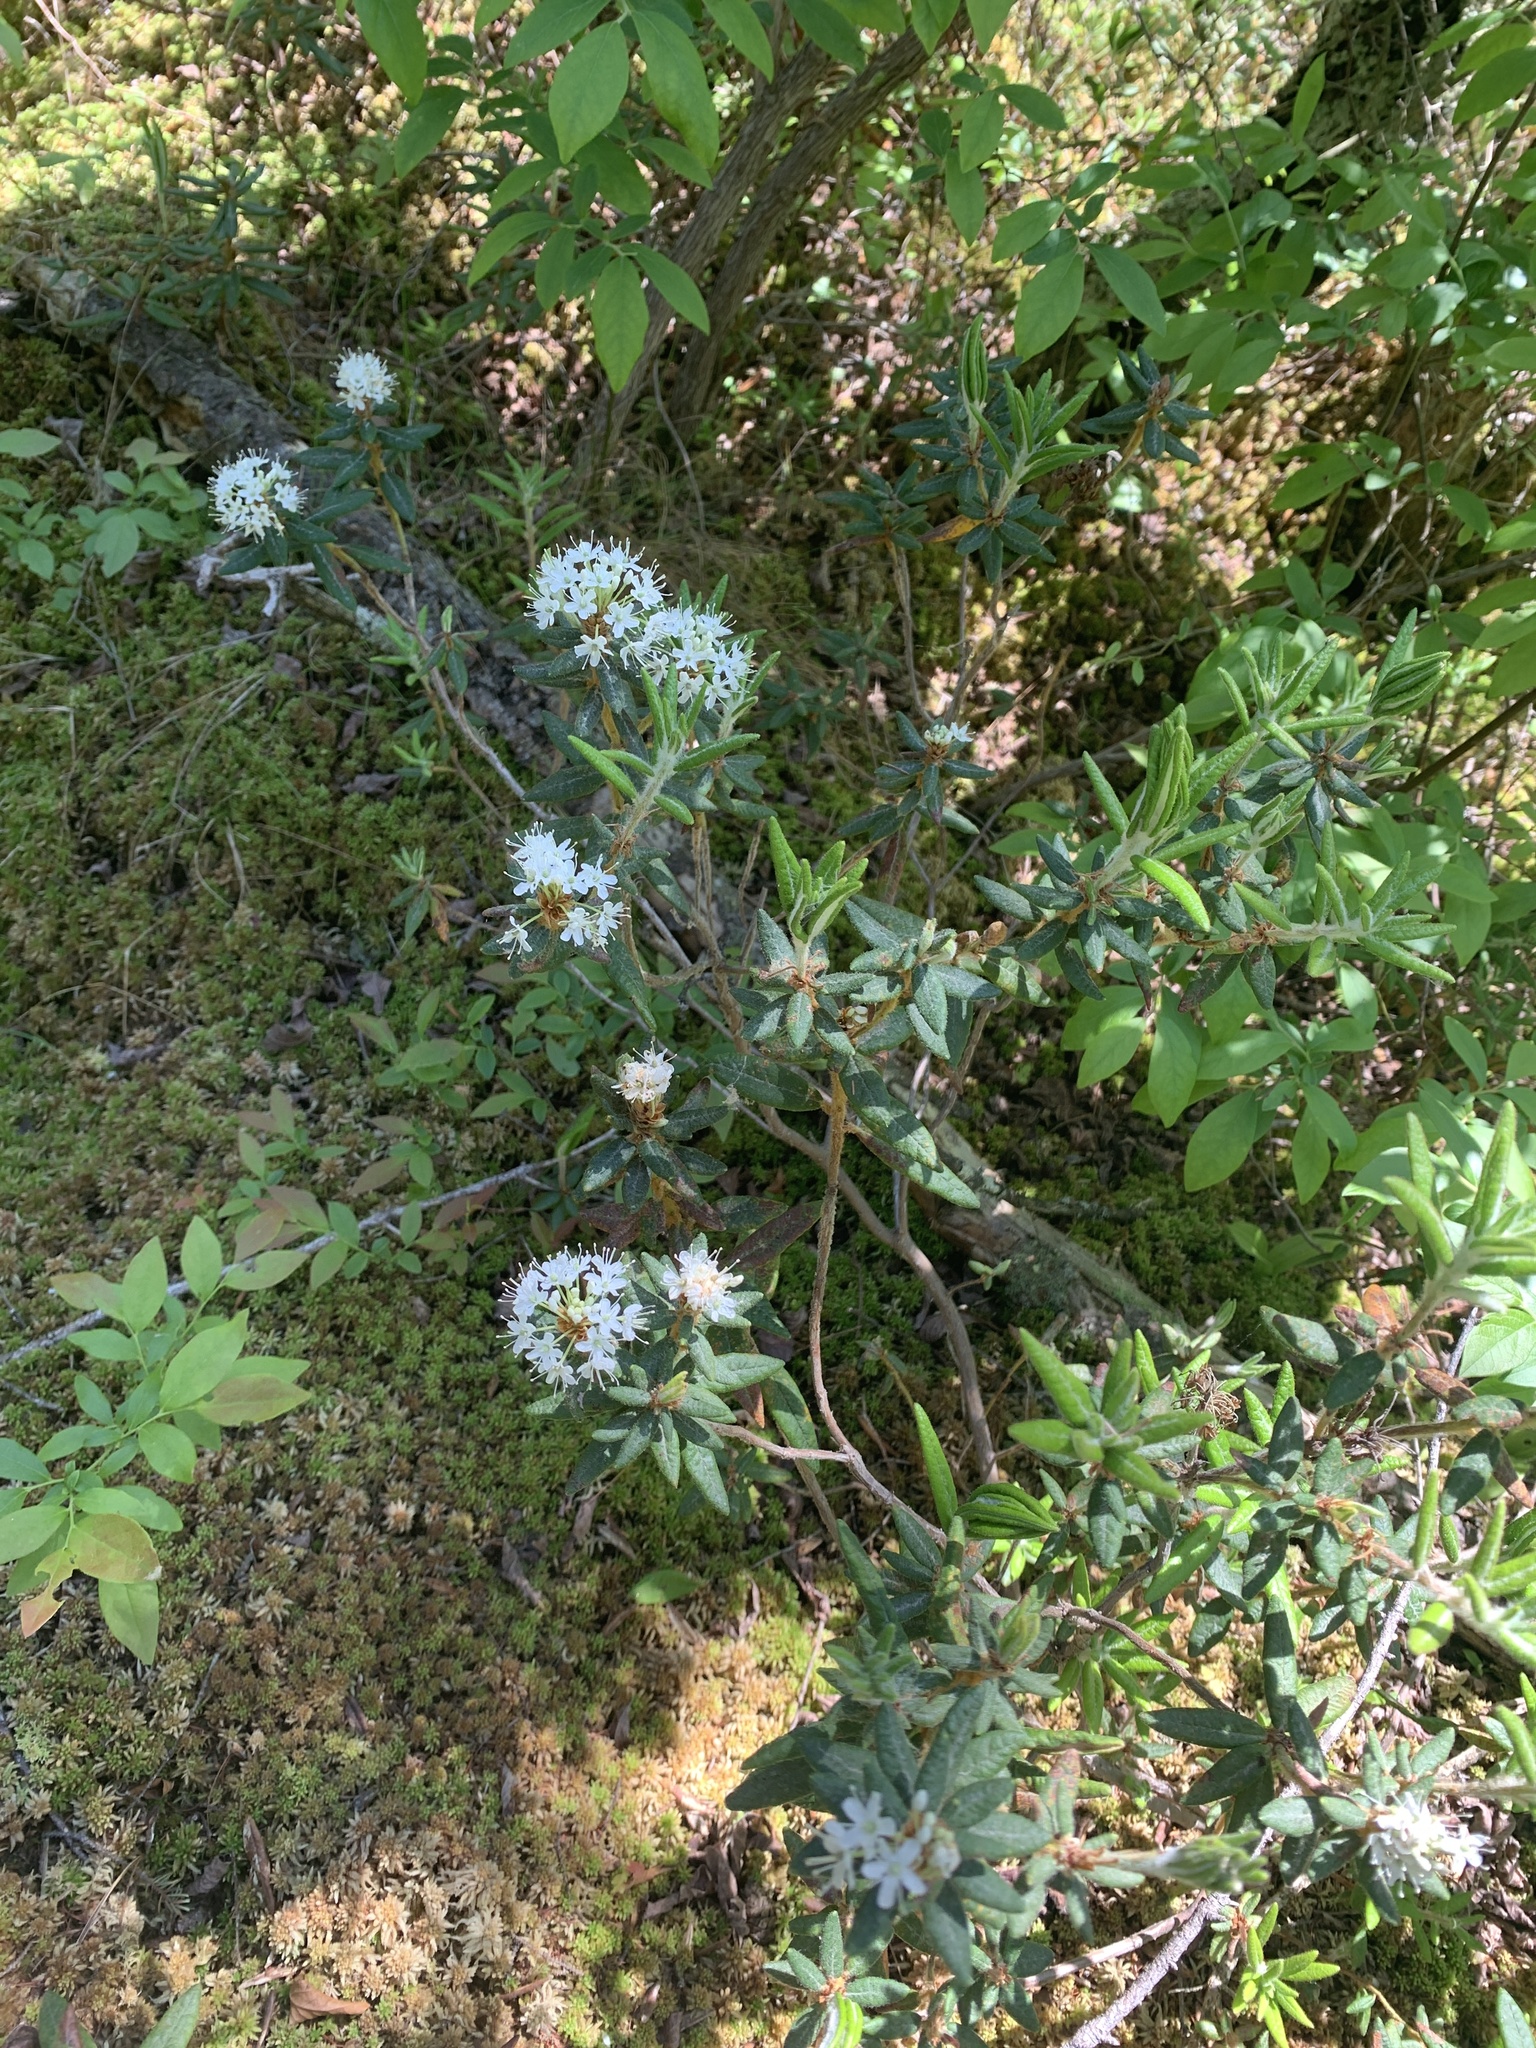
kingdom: Plantae
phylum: Tracheophyta
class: Magnoliopsida
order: Ericales
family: Ericaceae
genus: Rhododendron
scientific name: Rhododendron groenlandicum
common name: Bog labrador tea
